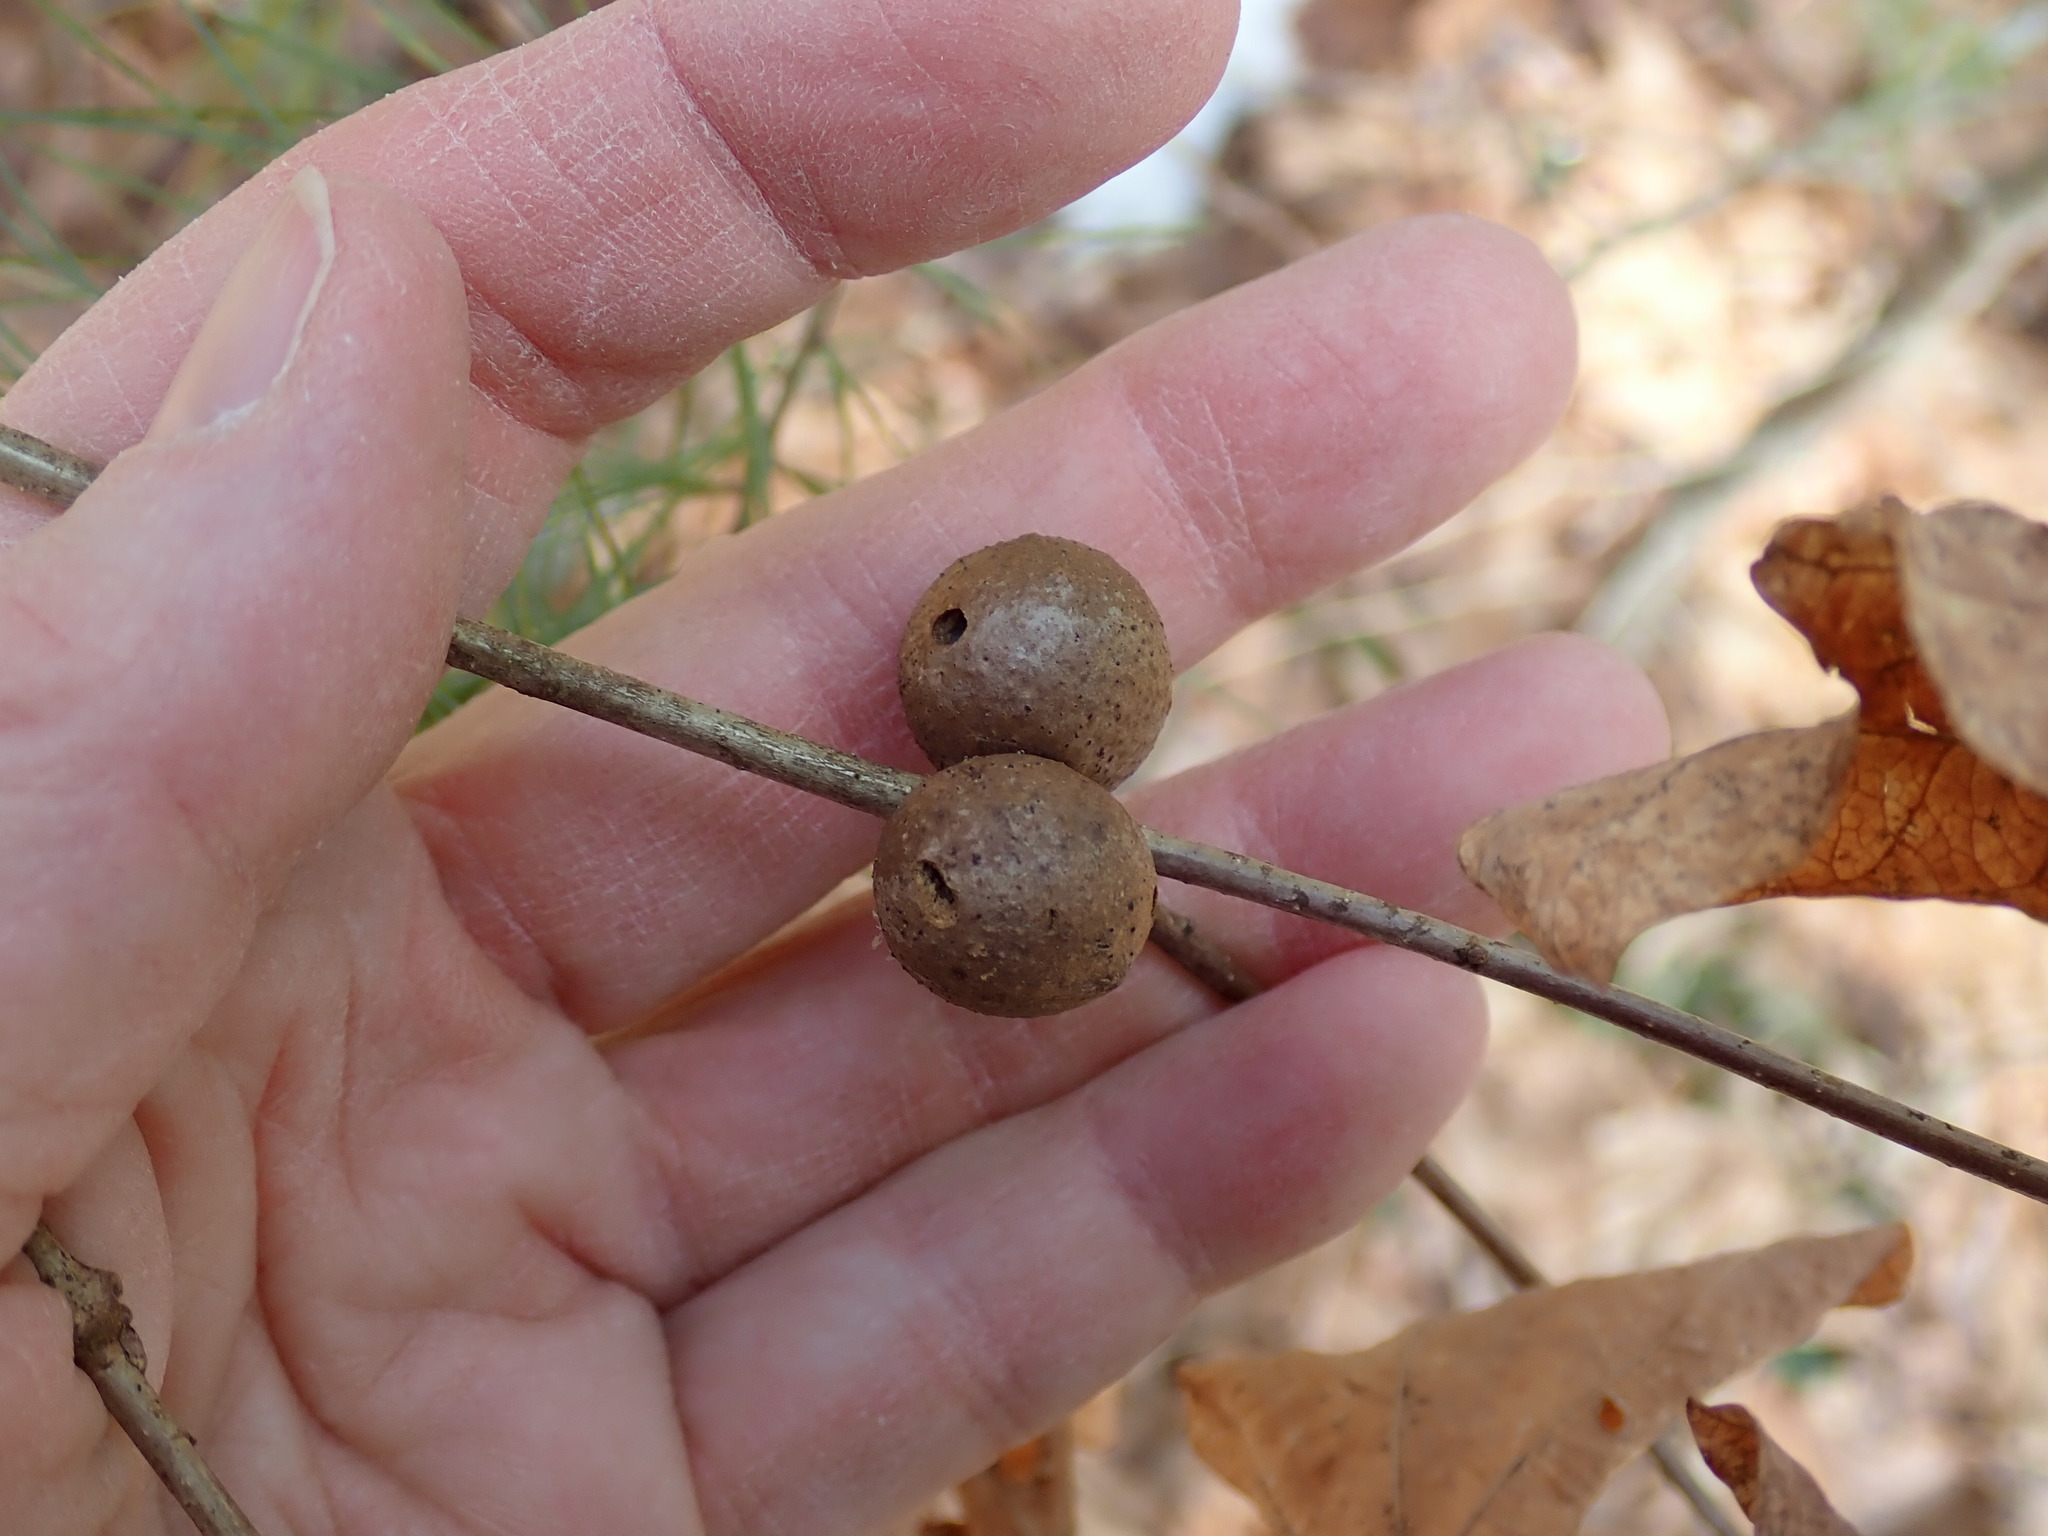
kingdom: Animalia
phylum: Arthropoda
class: Insecta
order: Hymenoptera
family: Cynipidae
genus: Disholcaspis
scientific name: Disholcaspis quercusglobulus
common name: Round bullet gall wasp
